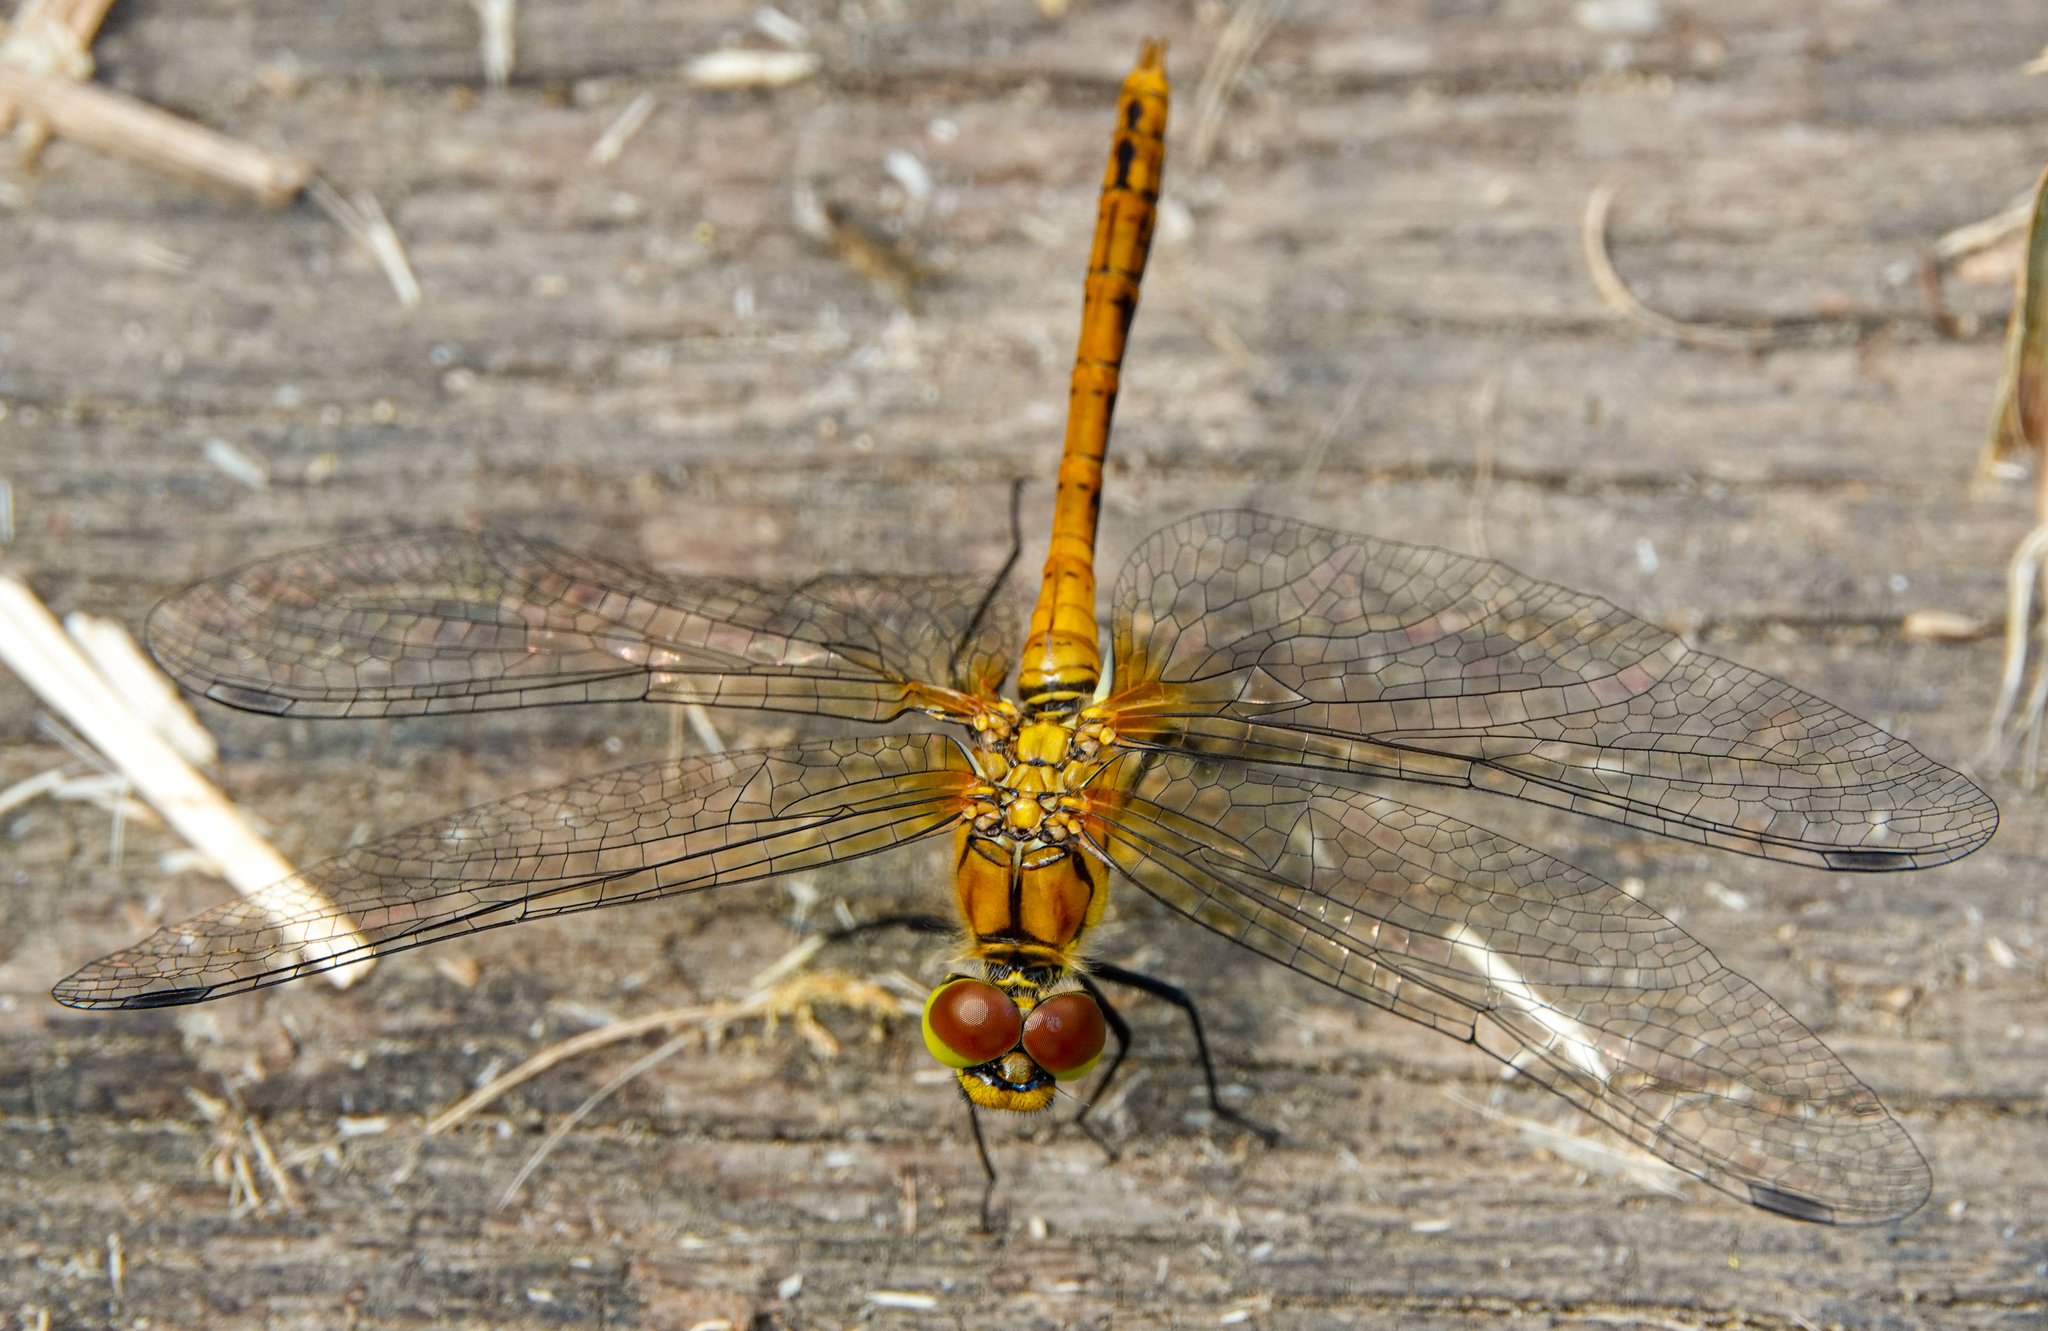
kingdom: Animalia
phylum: Arthropoda
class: Insecta
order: Odonata
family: Libellulidae
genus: Sympetrum
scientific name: Sympetrum sanguineum
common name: Ruddy darter
